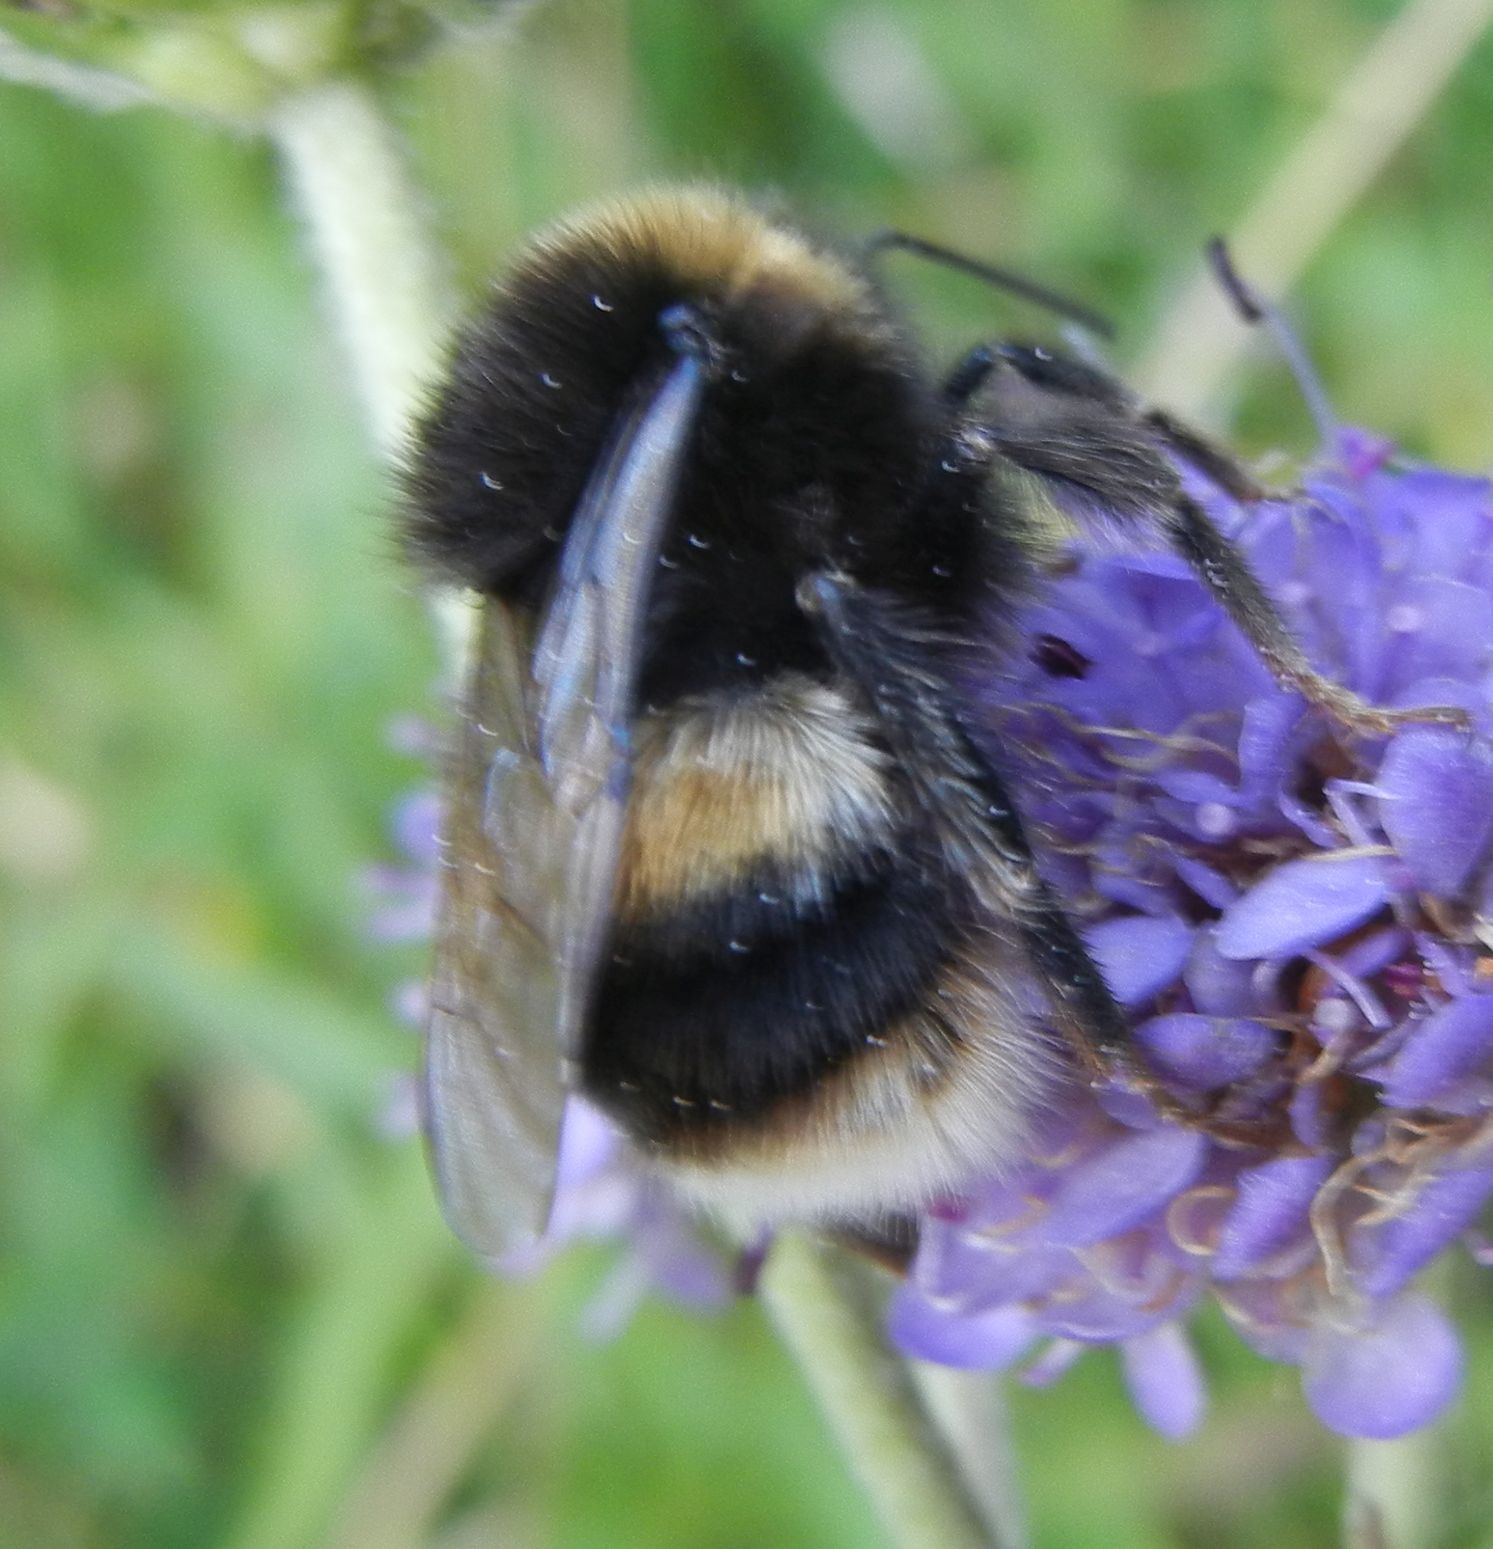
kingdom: Animalia
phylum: Arthropoda
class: Insecta
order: Hymenoptera
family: Apidae
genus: Bombus
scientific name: Bombus terrestris
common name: Buff-tailed bumblebee
